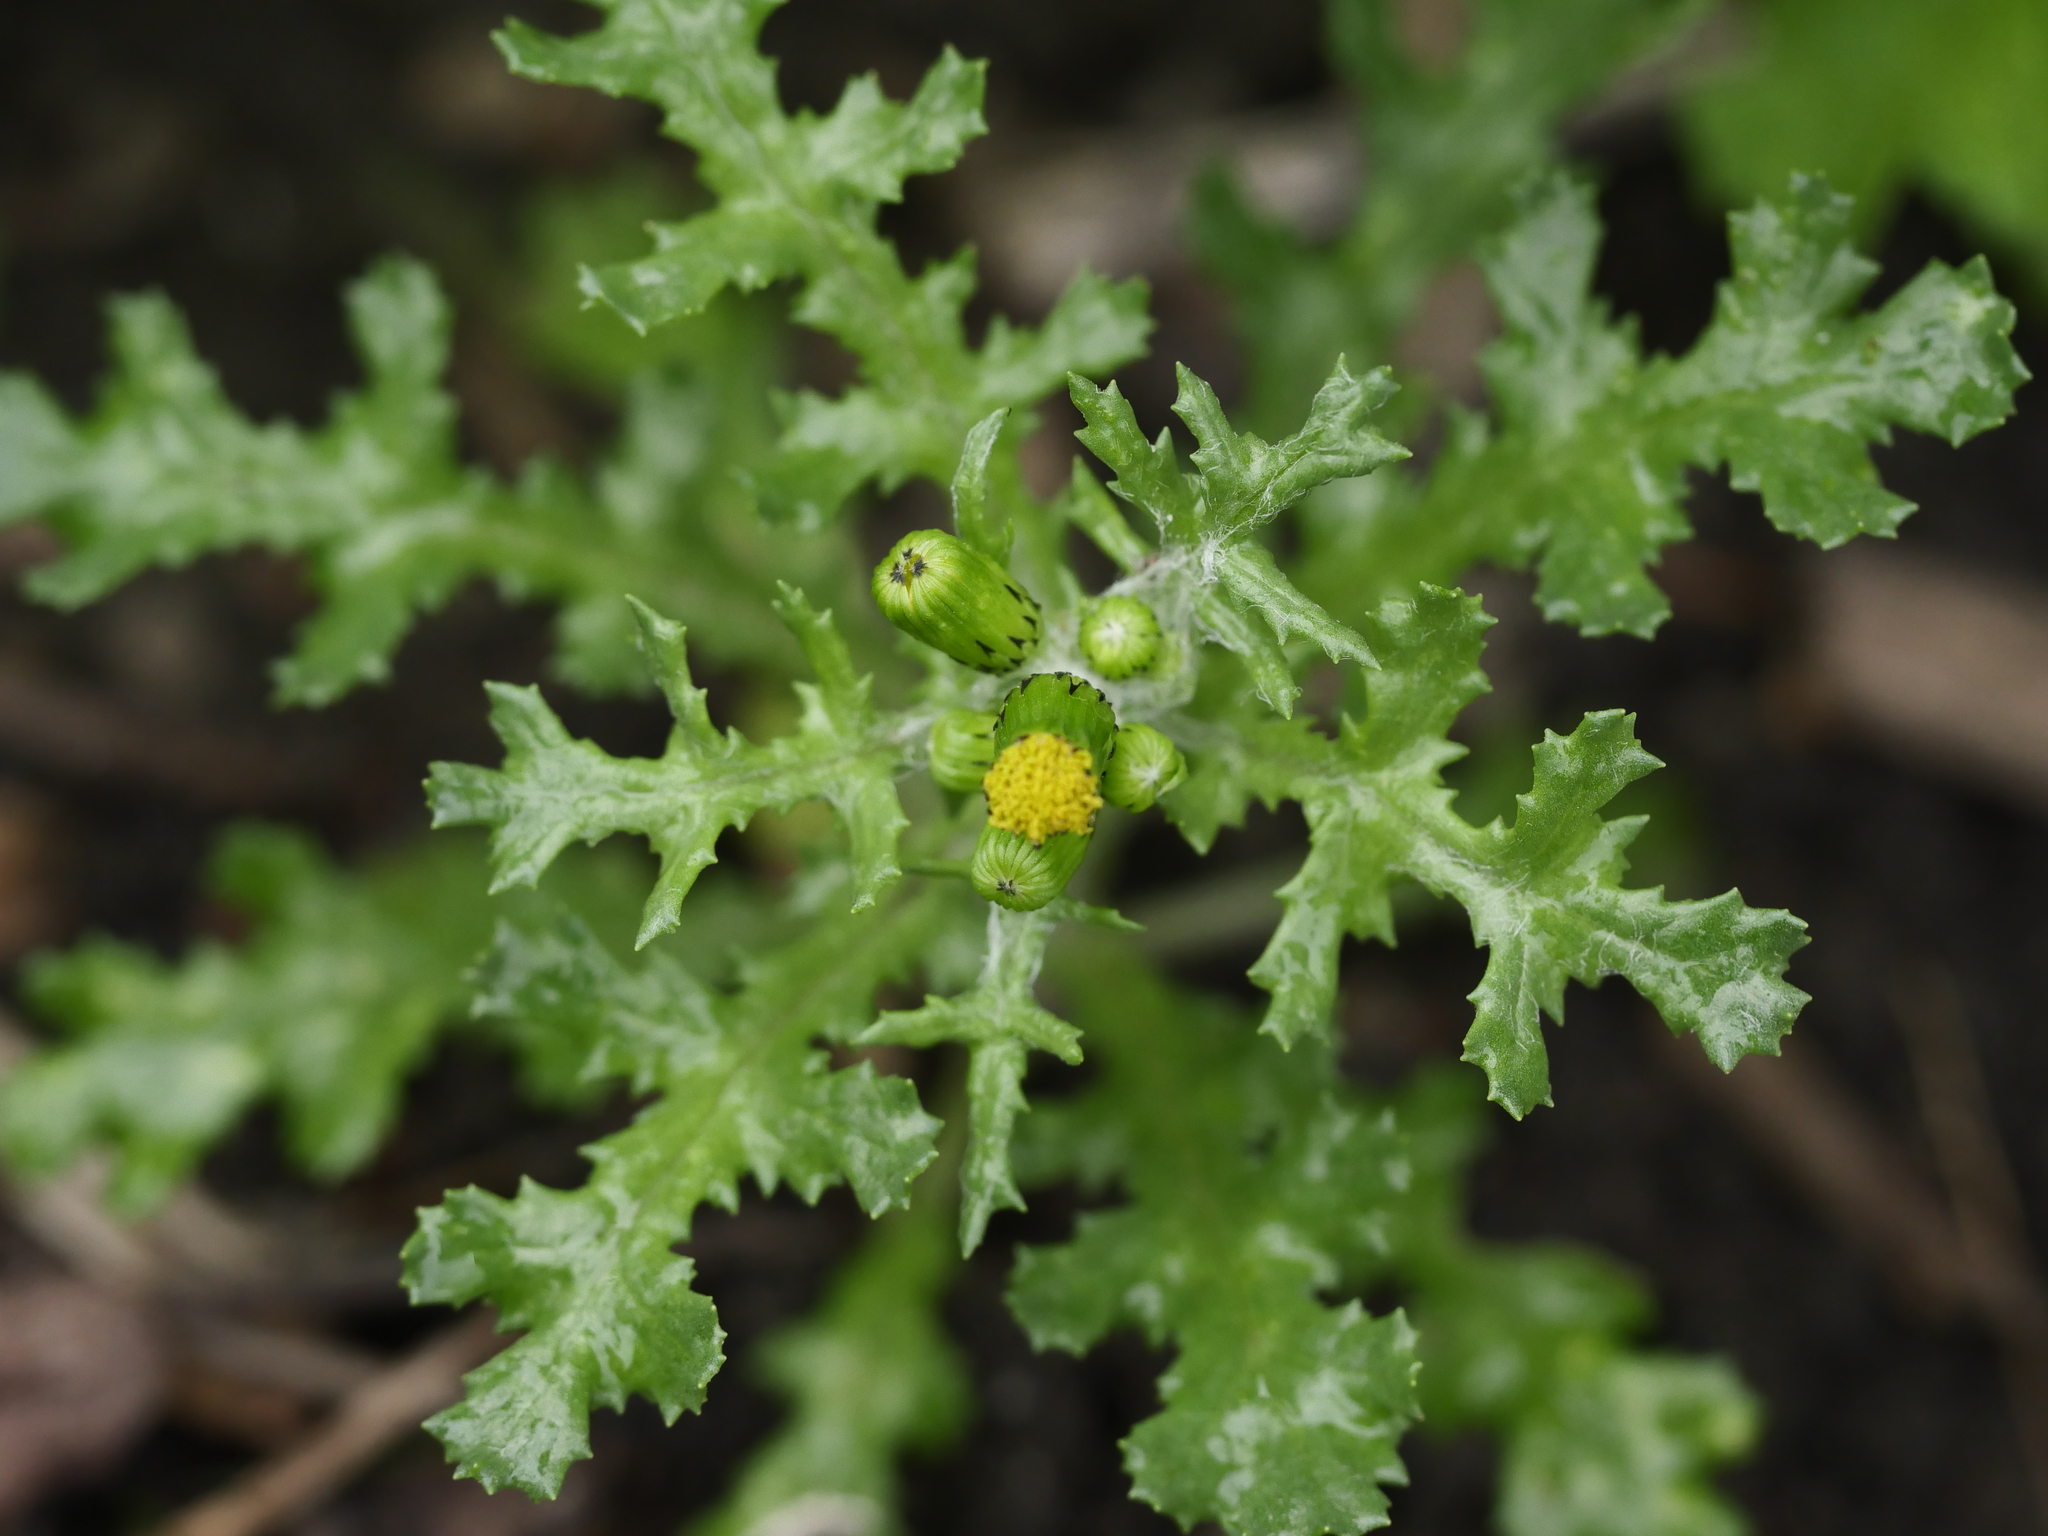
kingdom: Plantae
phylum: Tracheophyta
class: Magnoliopsida
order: Asterales
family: Asteraceae
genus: Senecio
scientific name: Senecio vulgaris
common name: Old-man-in-the-spring
